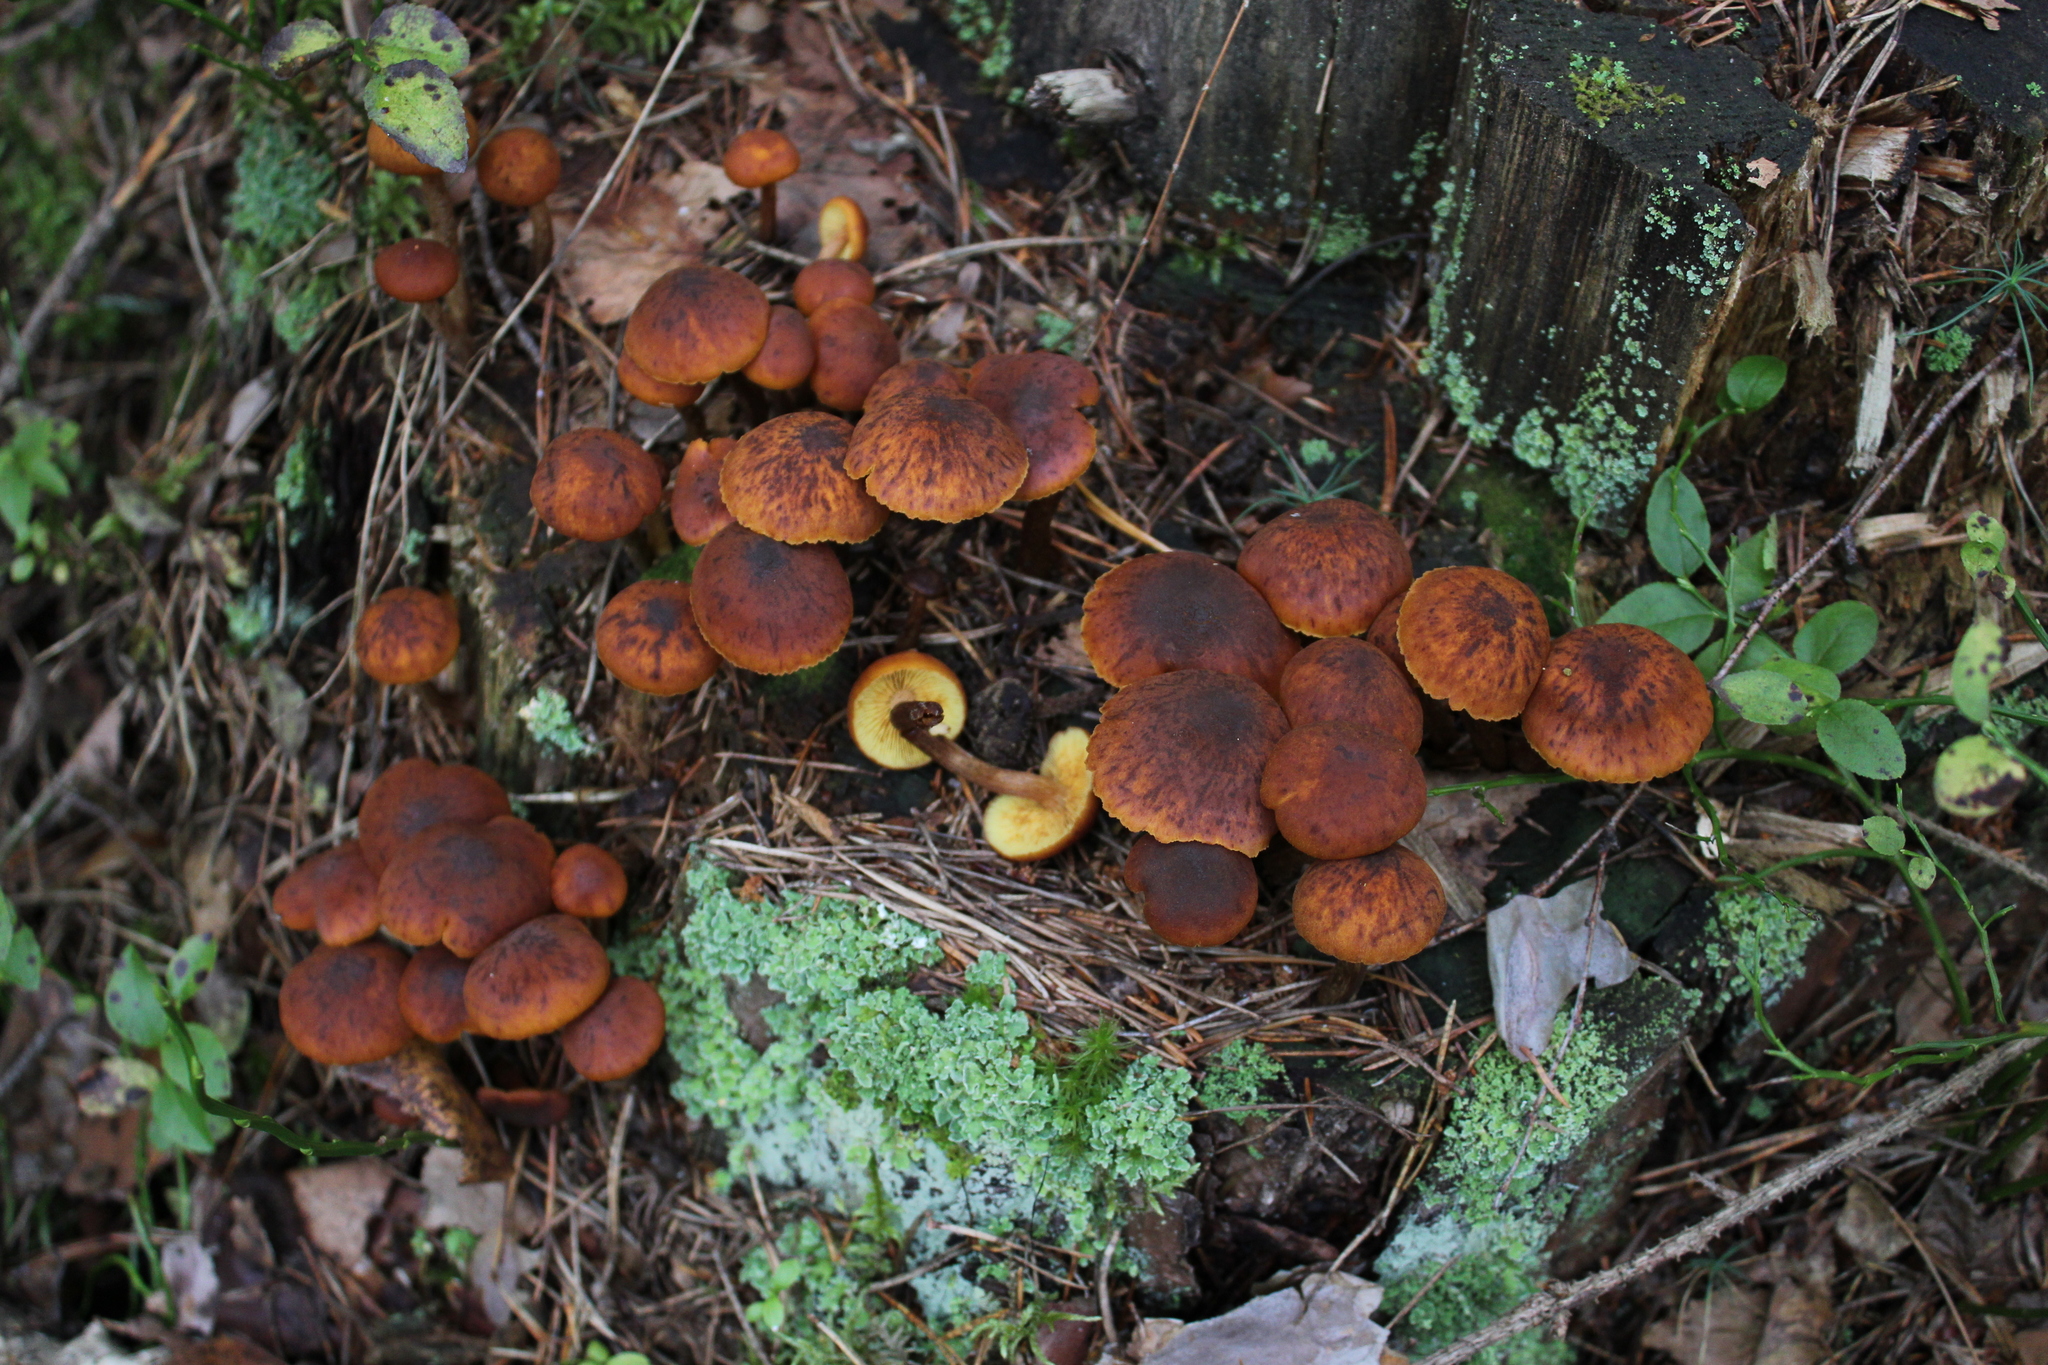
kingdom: Fungi
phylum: Basidiomycota
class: Agaricomycetes
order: Agaricales
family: Hymenogastraceae
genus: Gymnopilus
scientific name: Gymnopilus penetrans
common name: Common rustgill
